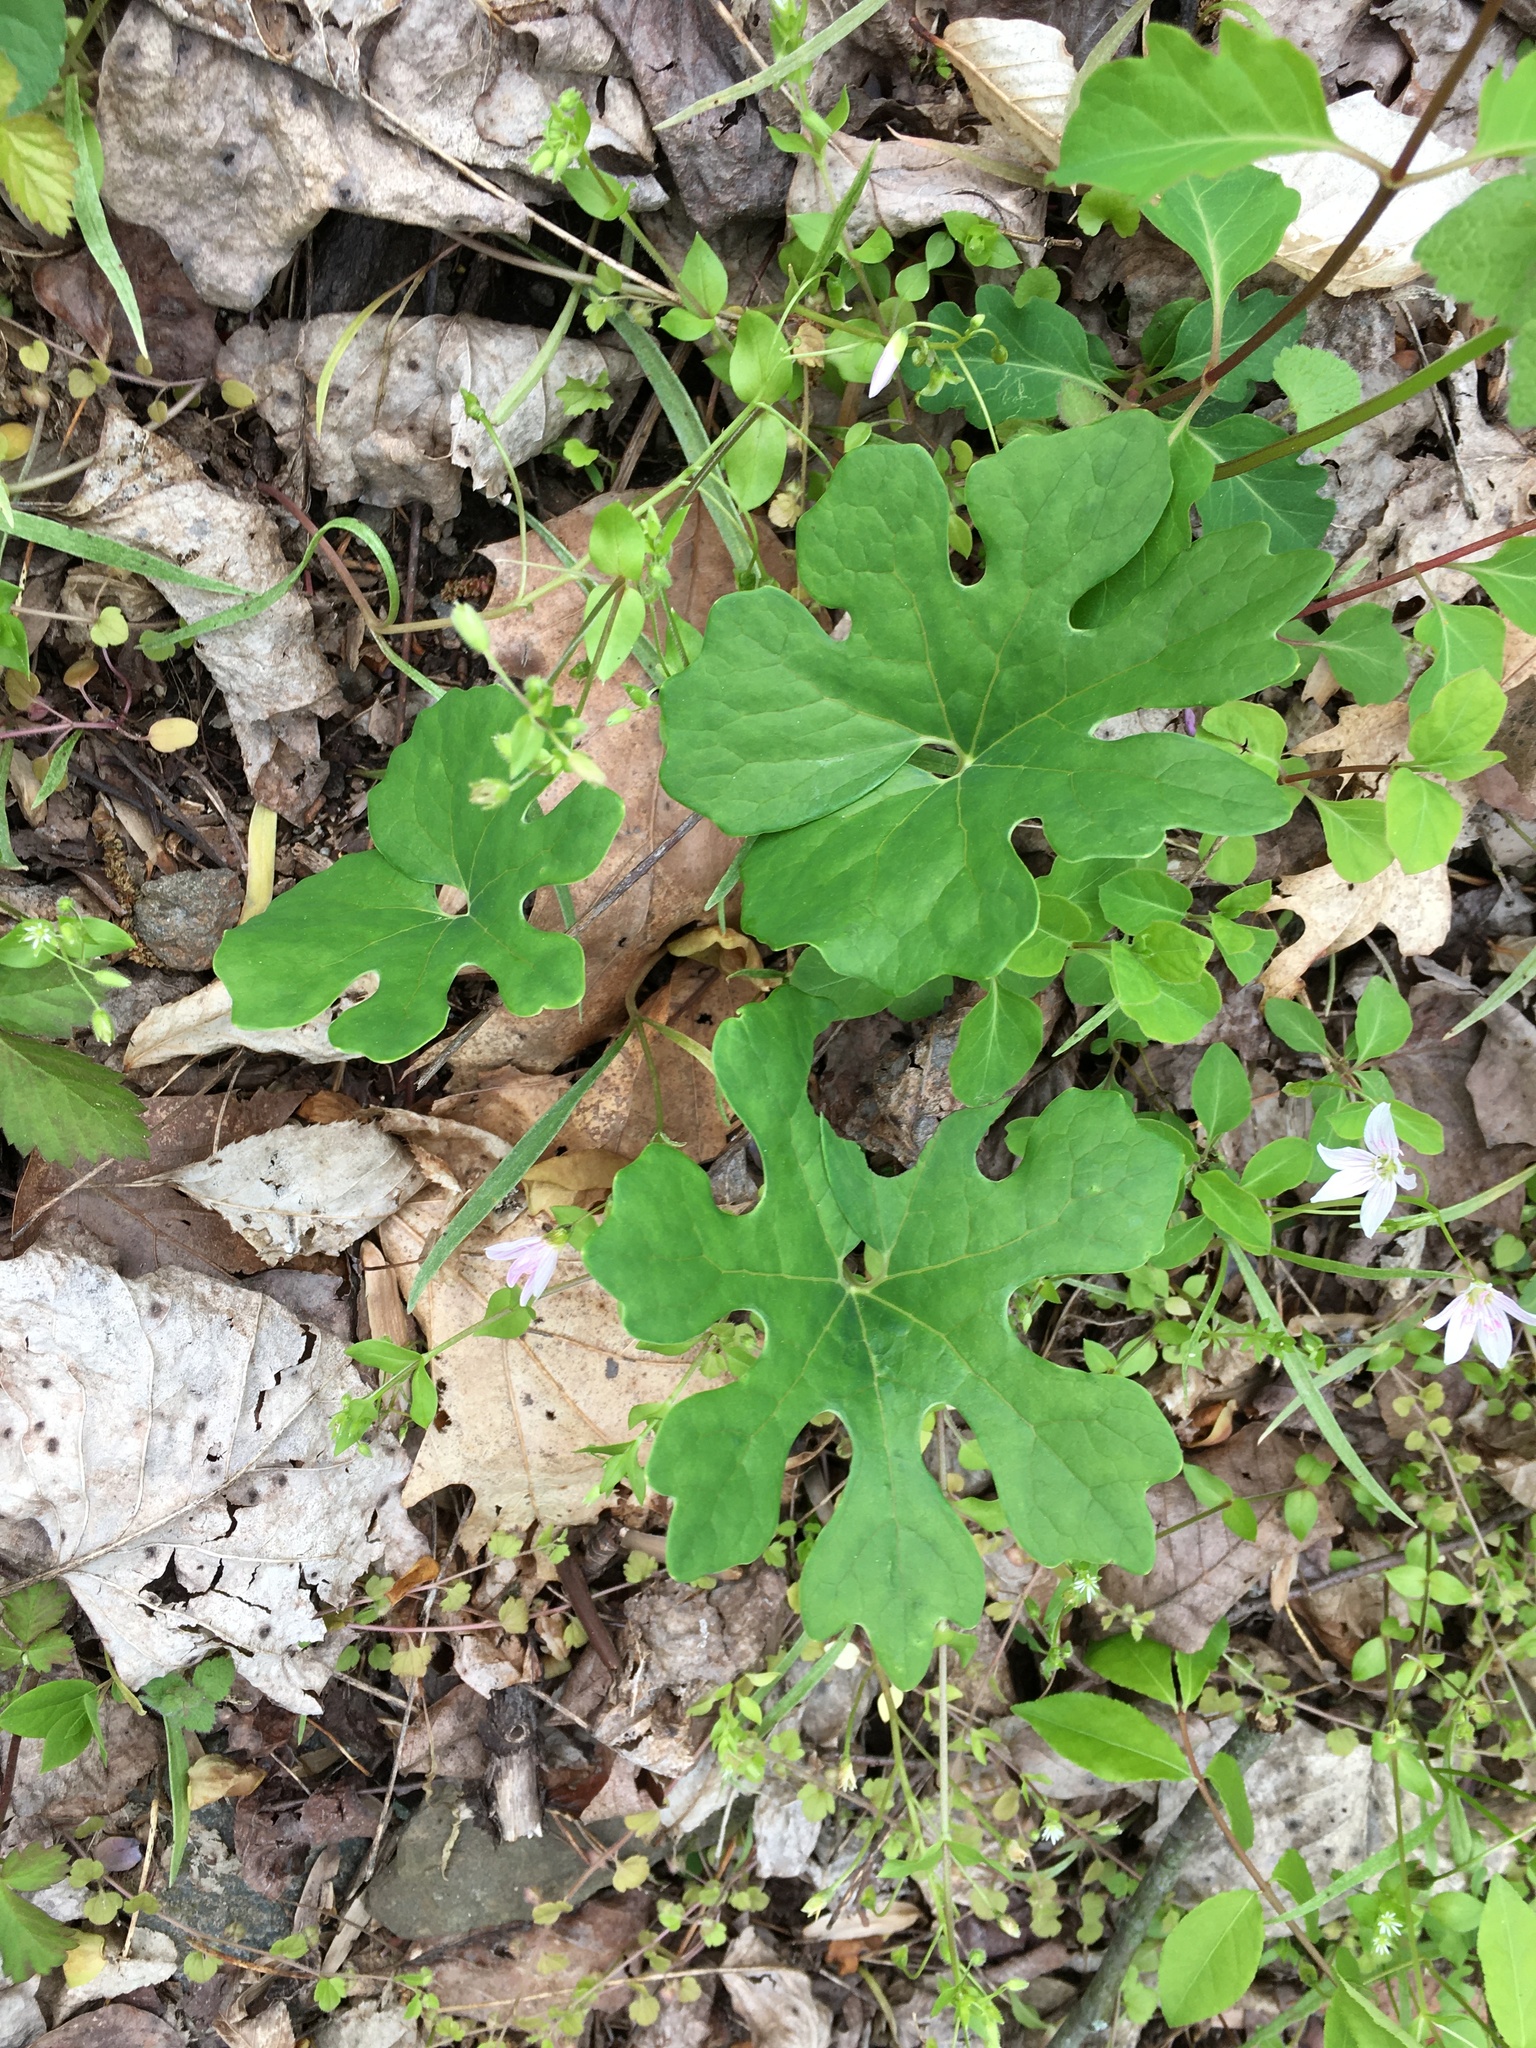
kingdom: Plantae
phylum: Tracheophyta
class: Magnoliopsida
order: Ranunculales
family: Papaveraceae
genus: Sanguinaria
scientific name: Sanguinaria canadensis
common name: Bloodroot
